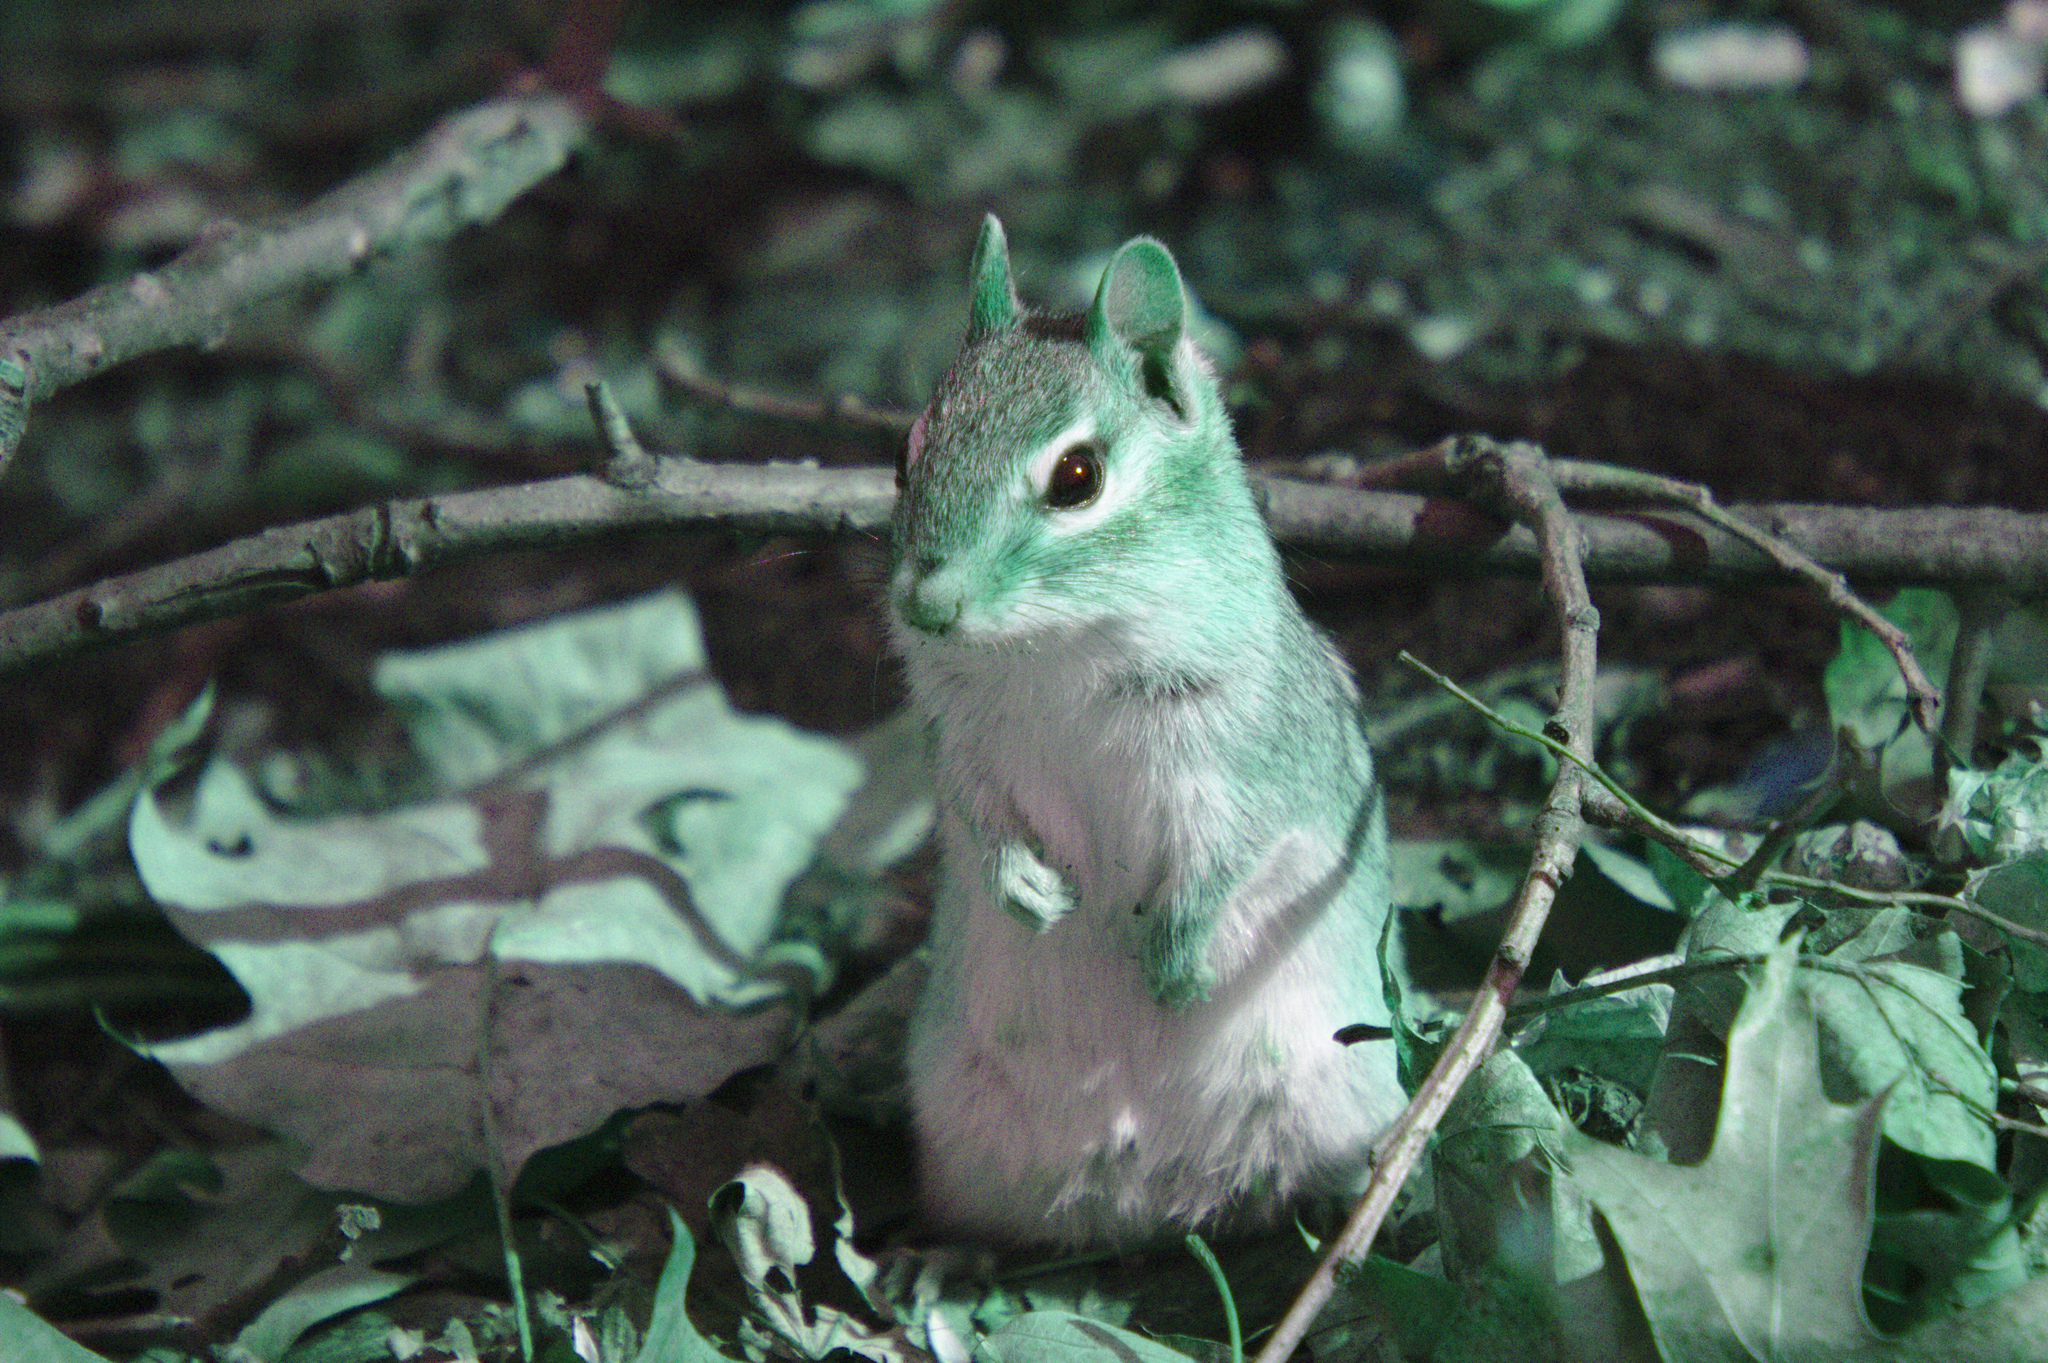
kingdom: Animalia
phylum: Chordata
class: Mammalia
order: Rodentia
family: Sciuridae
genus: Tamias
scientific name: Tamias striatus
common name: Eastern chipmunk
